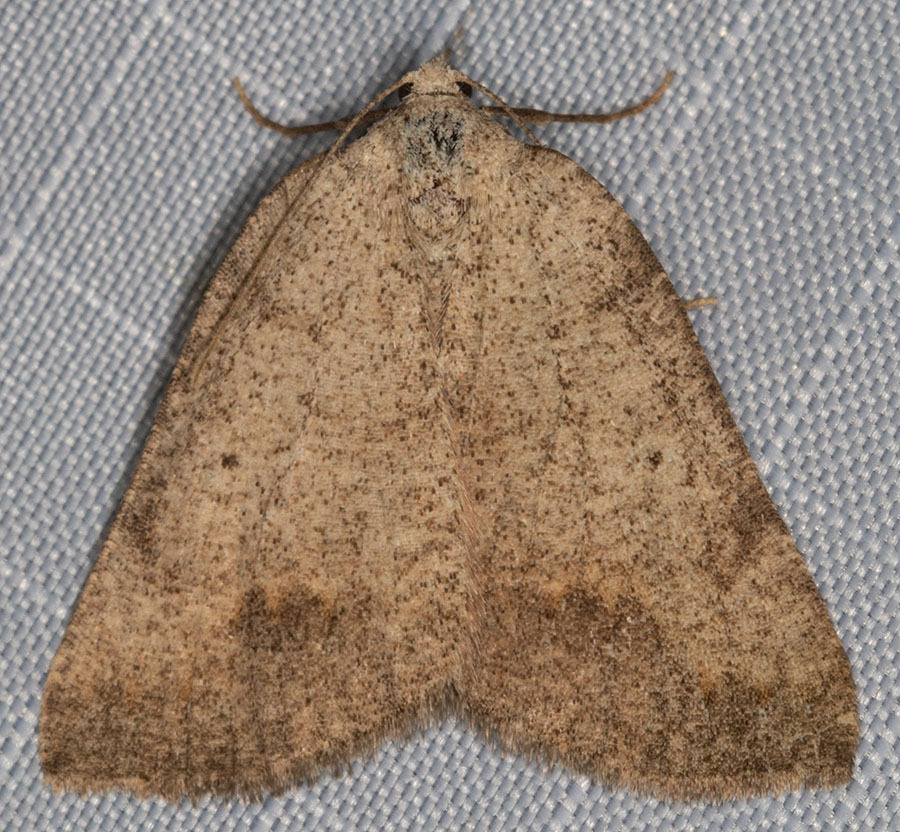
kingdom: Animalia
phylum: Arthropoda
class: Insecta
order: Lepidoptera
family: Geometridae
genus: Drepanulatrix
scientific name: Drepanulatrix quadraria
